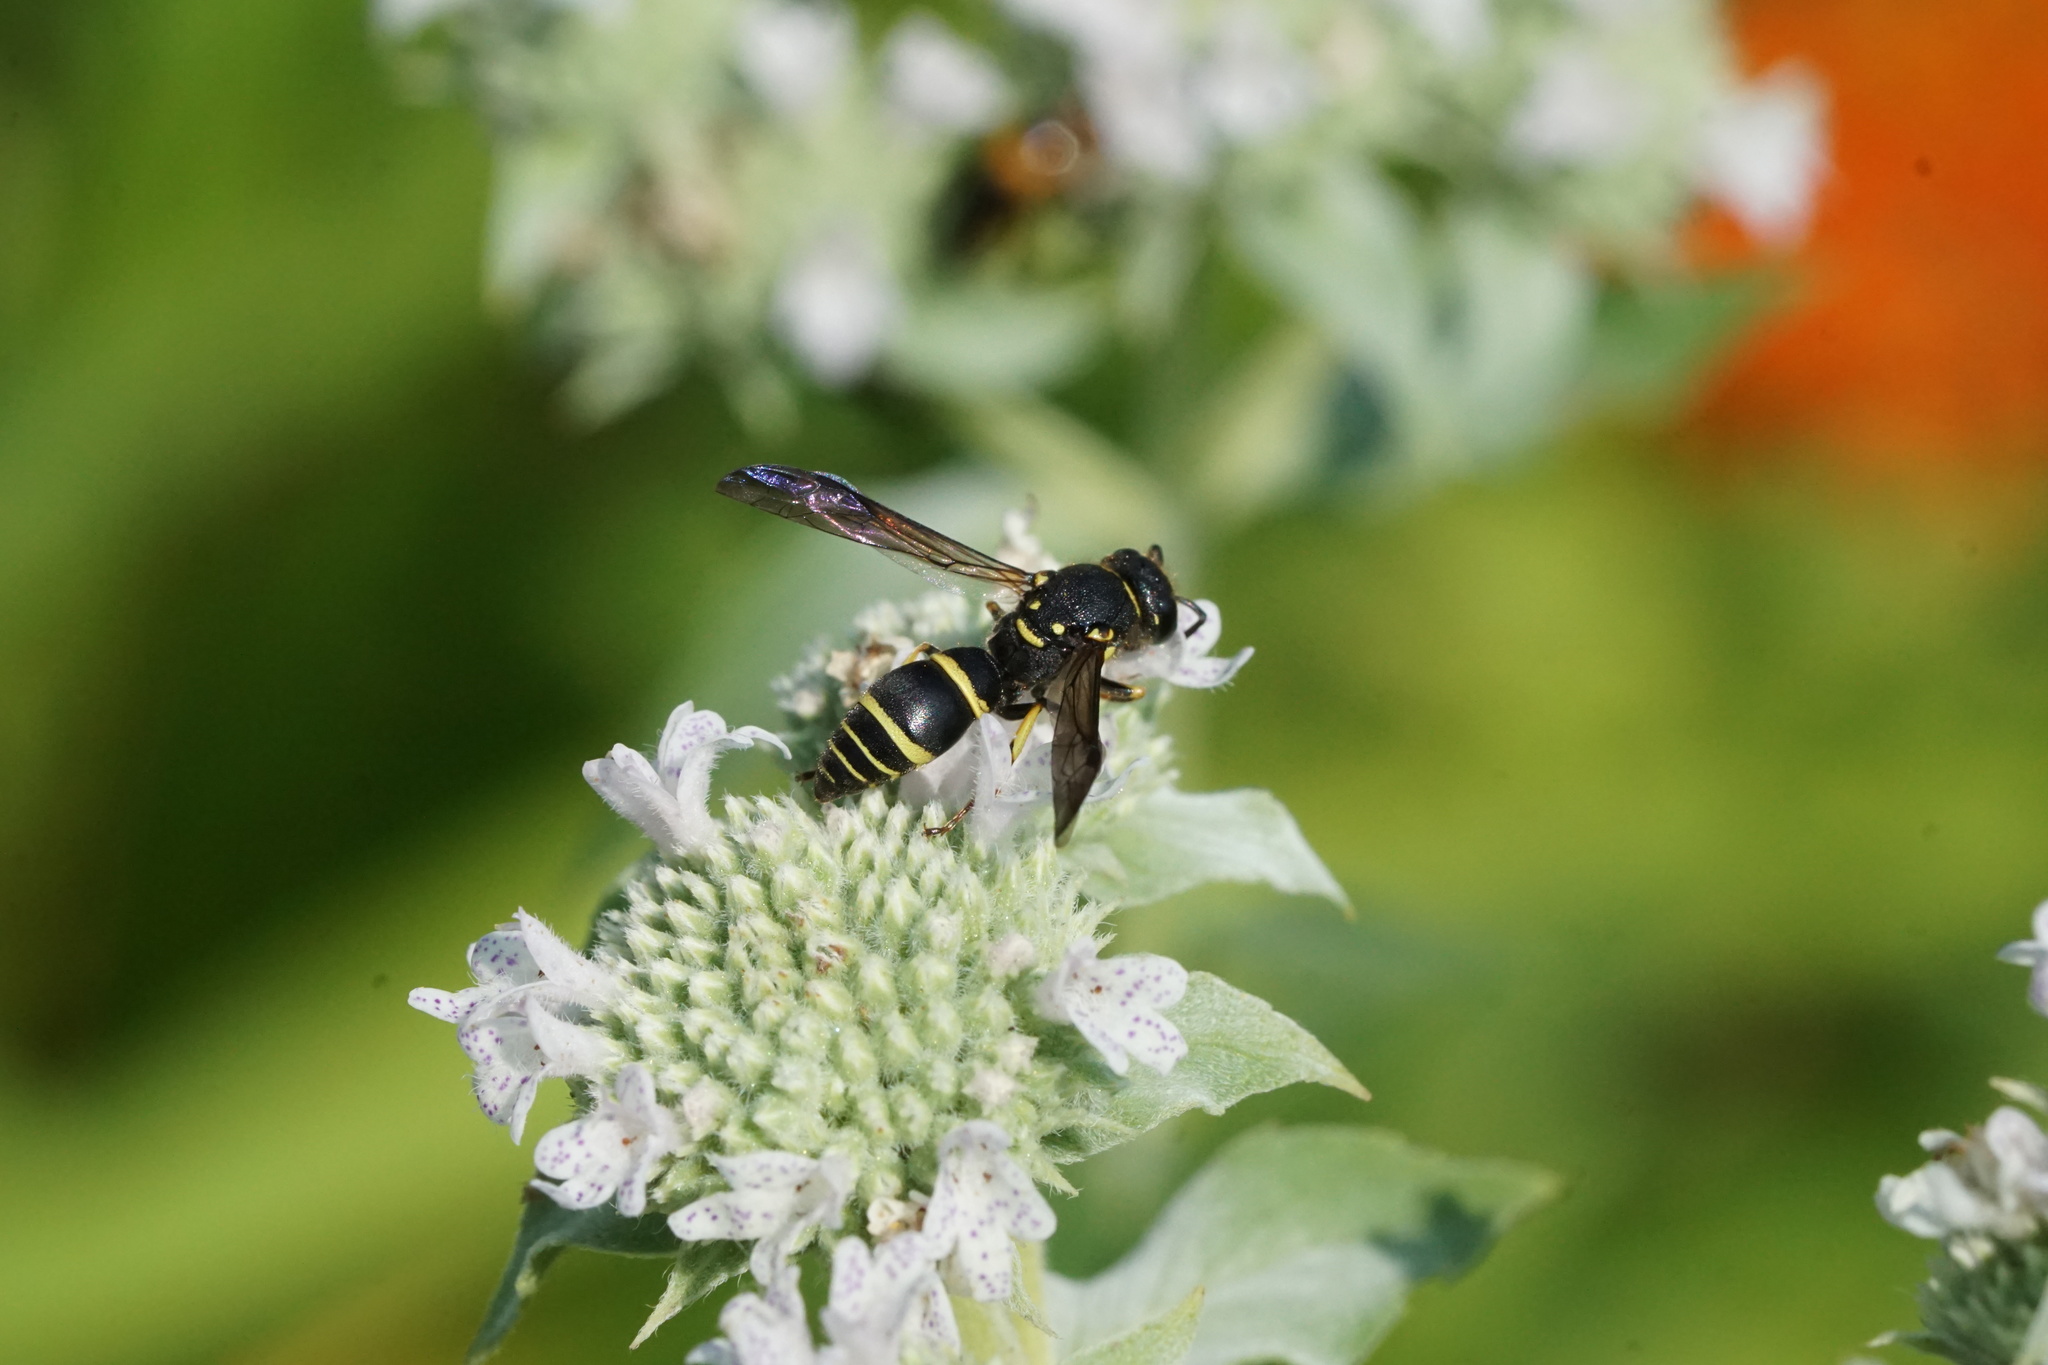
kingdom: Animalia
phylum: Arthropoda
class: Insecta
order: Hymenoptera
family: Vespidae
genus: Ancistrocerus
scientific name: Ancistrocerus adiabatus
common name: Bramble mason wasp
